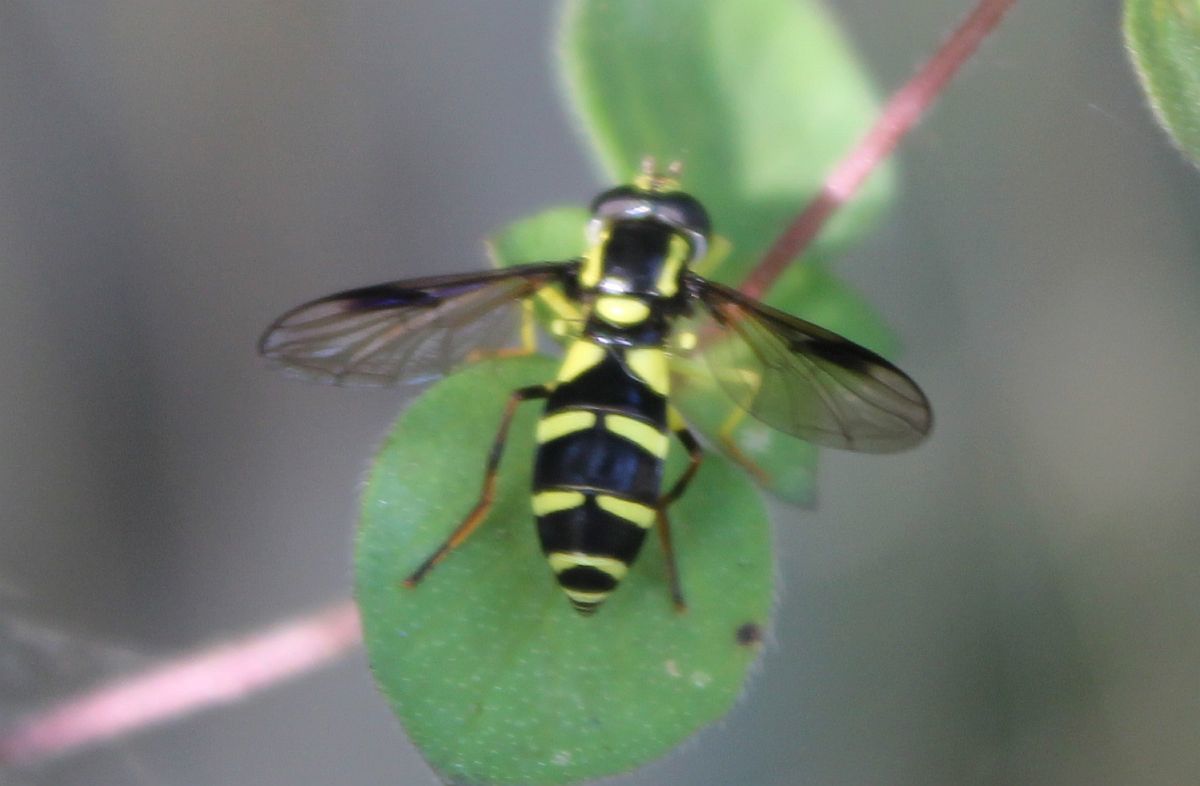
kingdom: Animalia
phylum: Arthropoda
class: Insecta
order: Diptera
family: Syrphidae
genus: Philhelius
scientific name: Philhelius pedissequum
